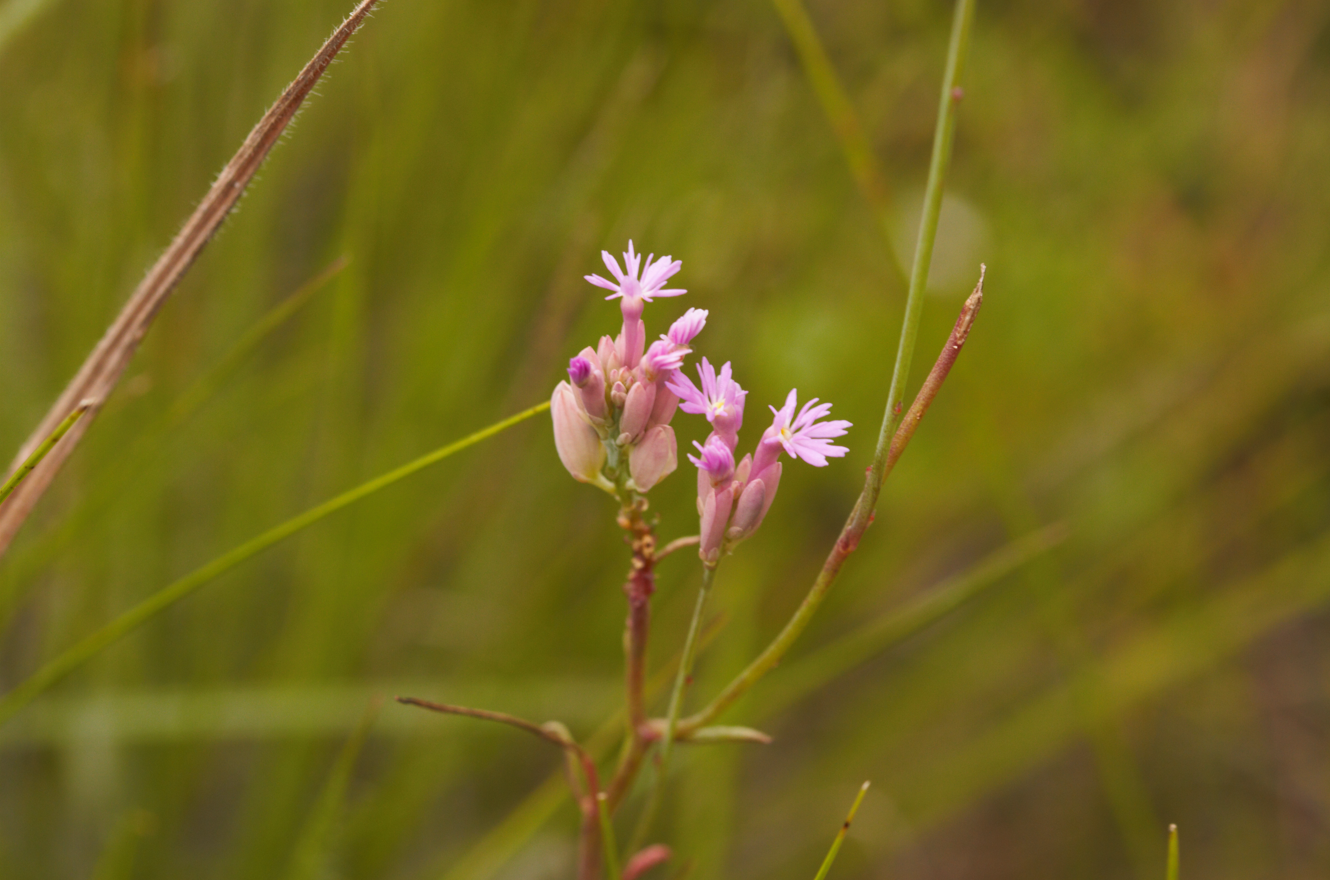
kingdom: Plantae
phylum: Tracheophyta
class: Magnoliopsida
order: Fabales
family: Polygalaceae
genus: Polygala
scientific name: Polygala adenophora
